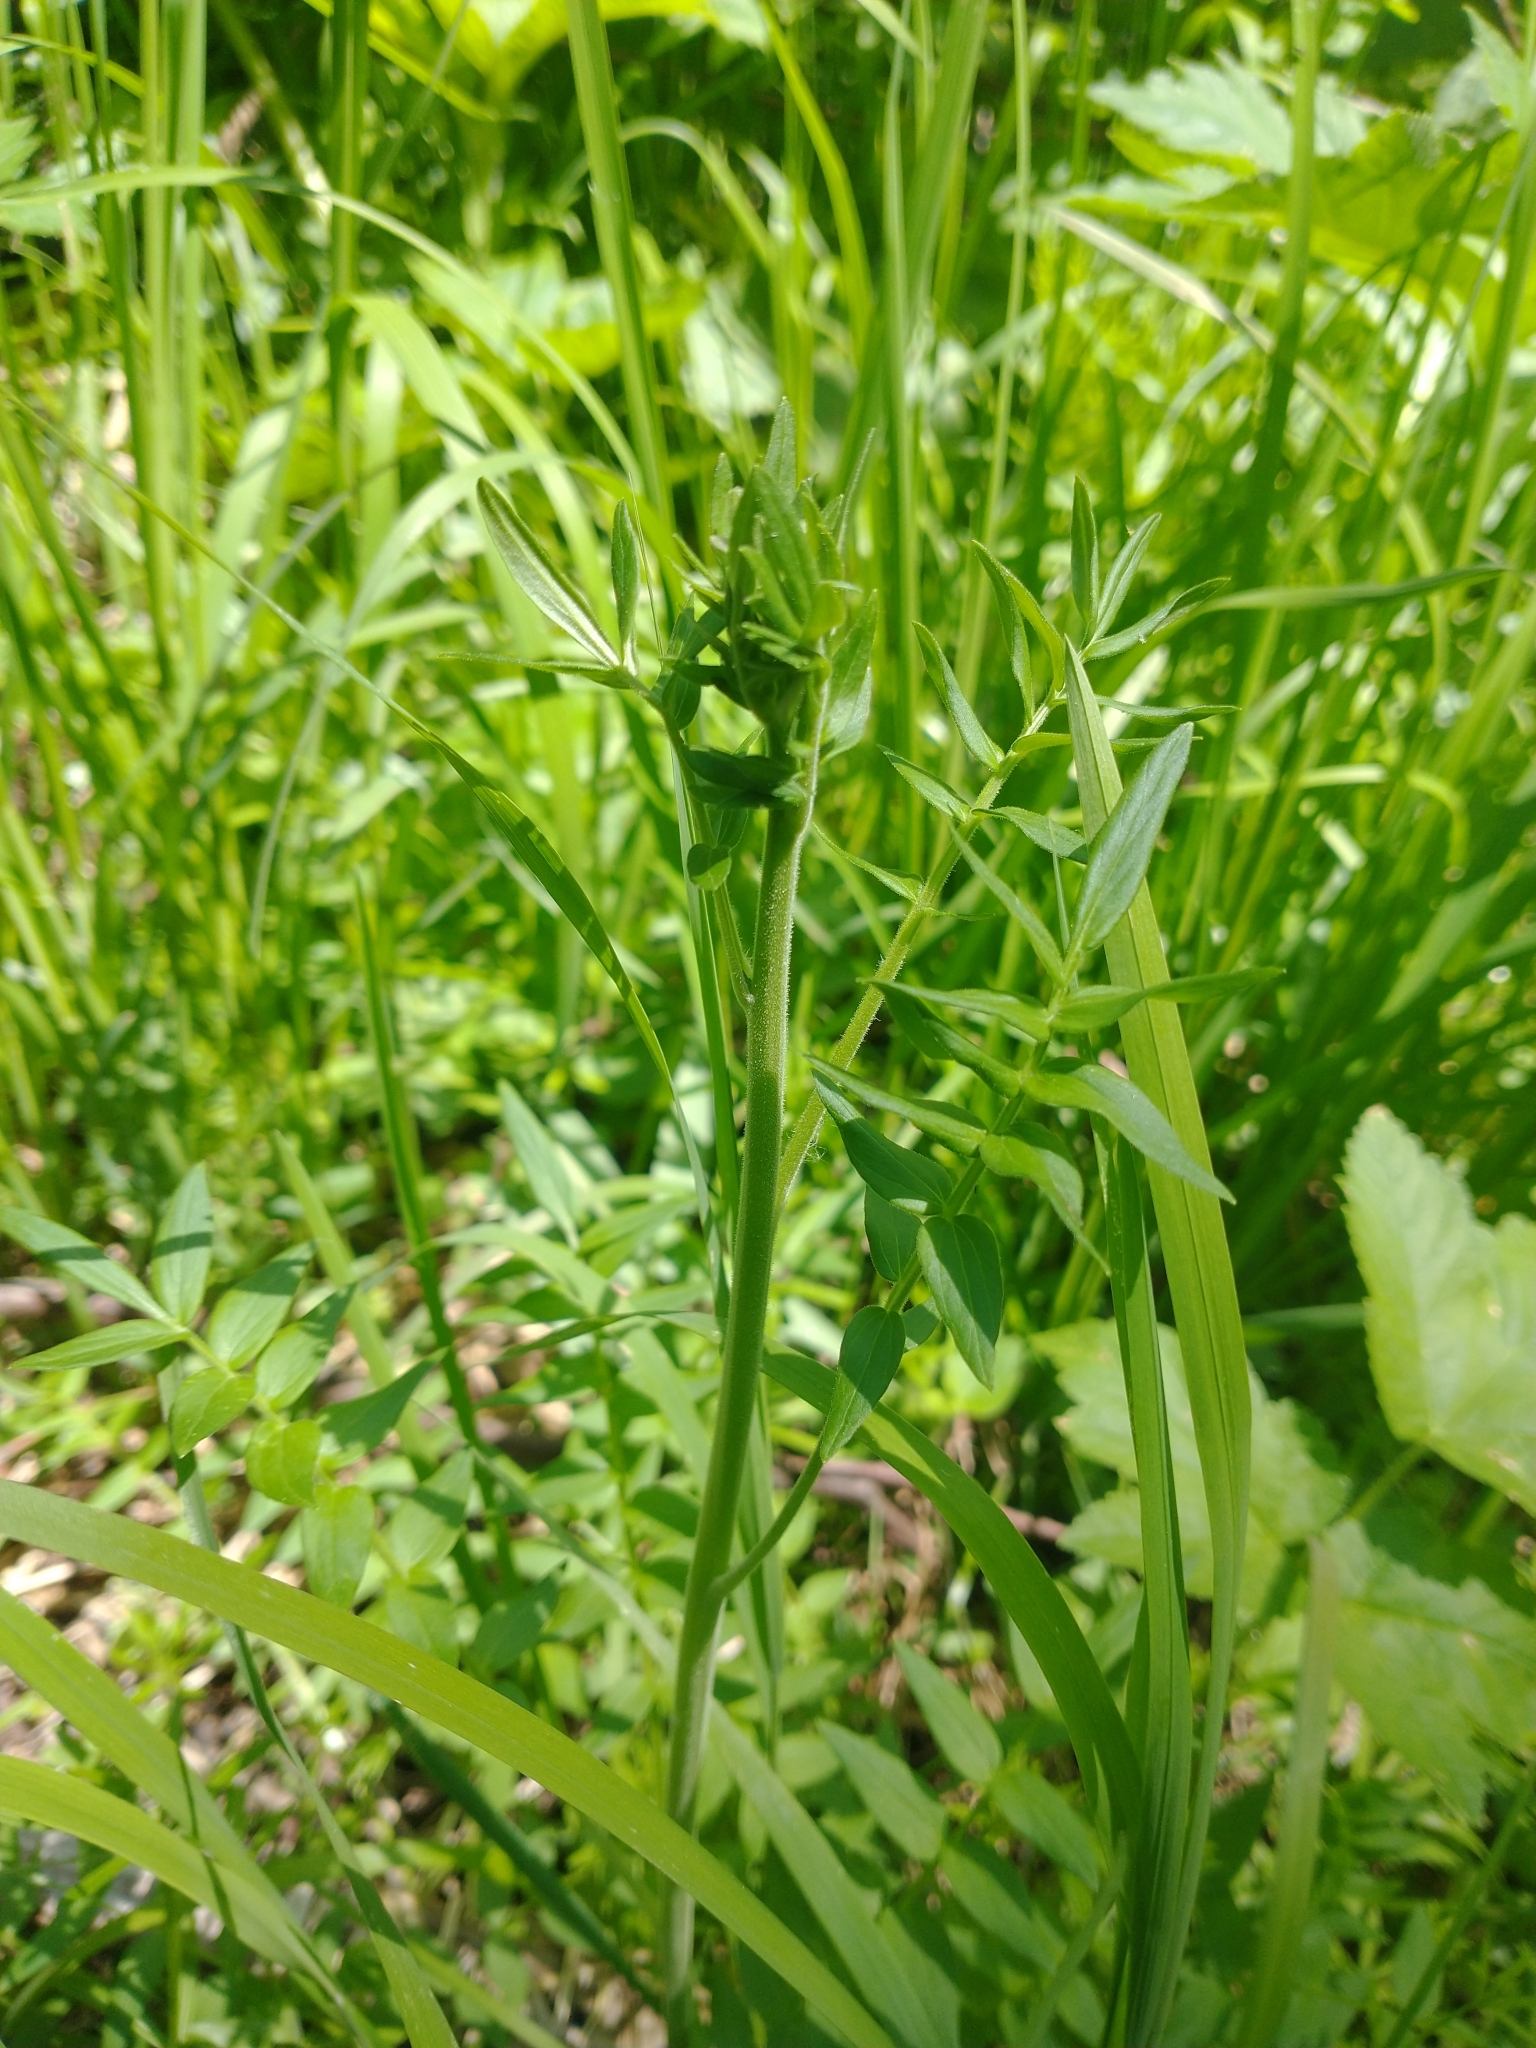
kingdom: Plantae
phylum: Tracheophyta
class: Magnoliopsida
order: Ericales
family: Polemoniaceae
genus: Polemonium
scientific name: Polemonium occidentale
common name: Western jacob's-ladder
